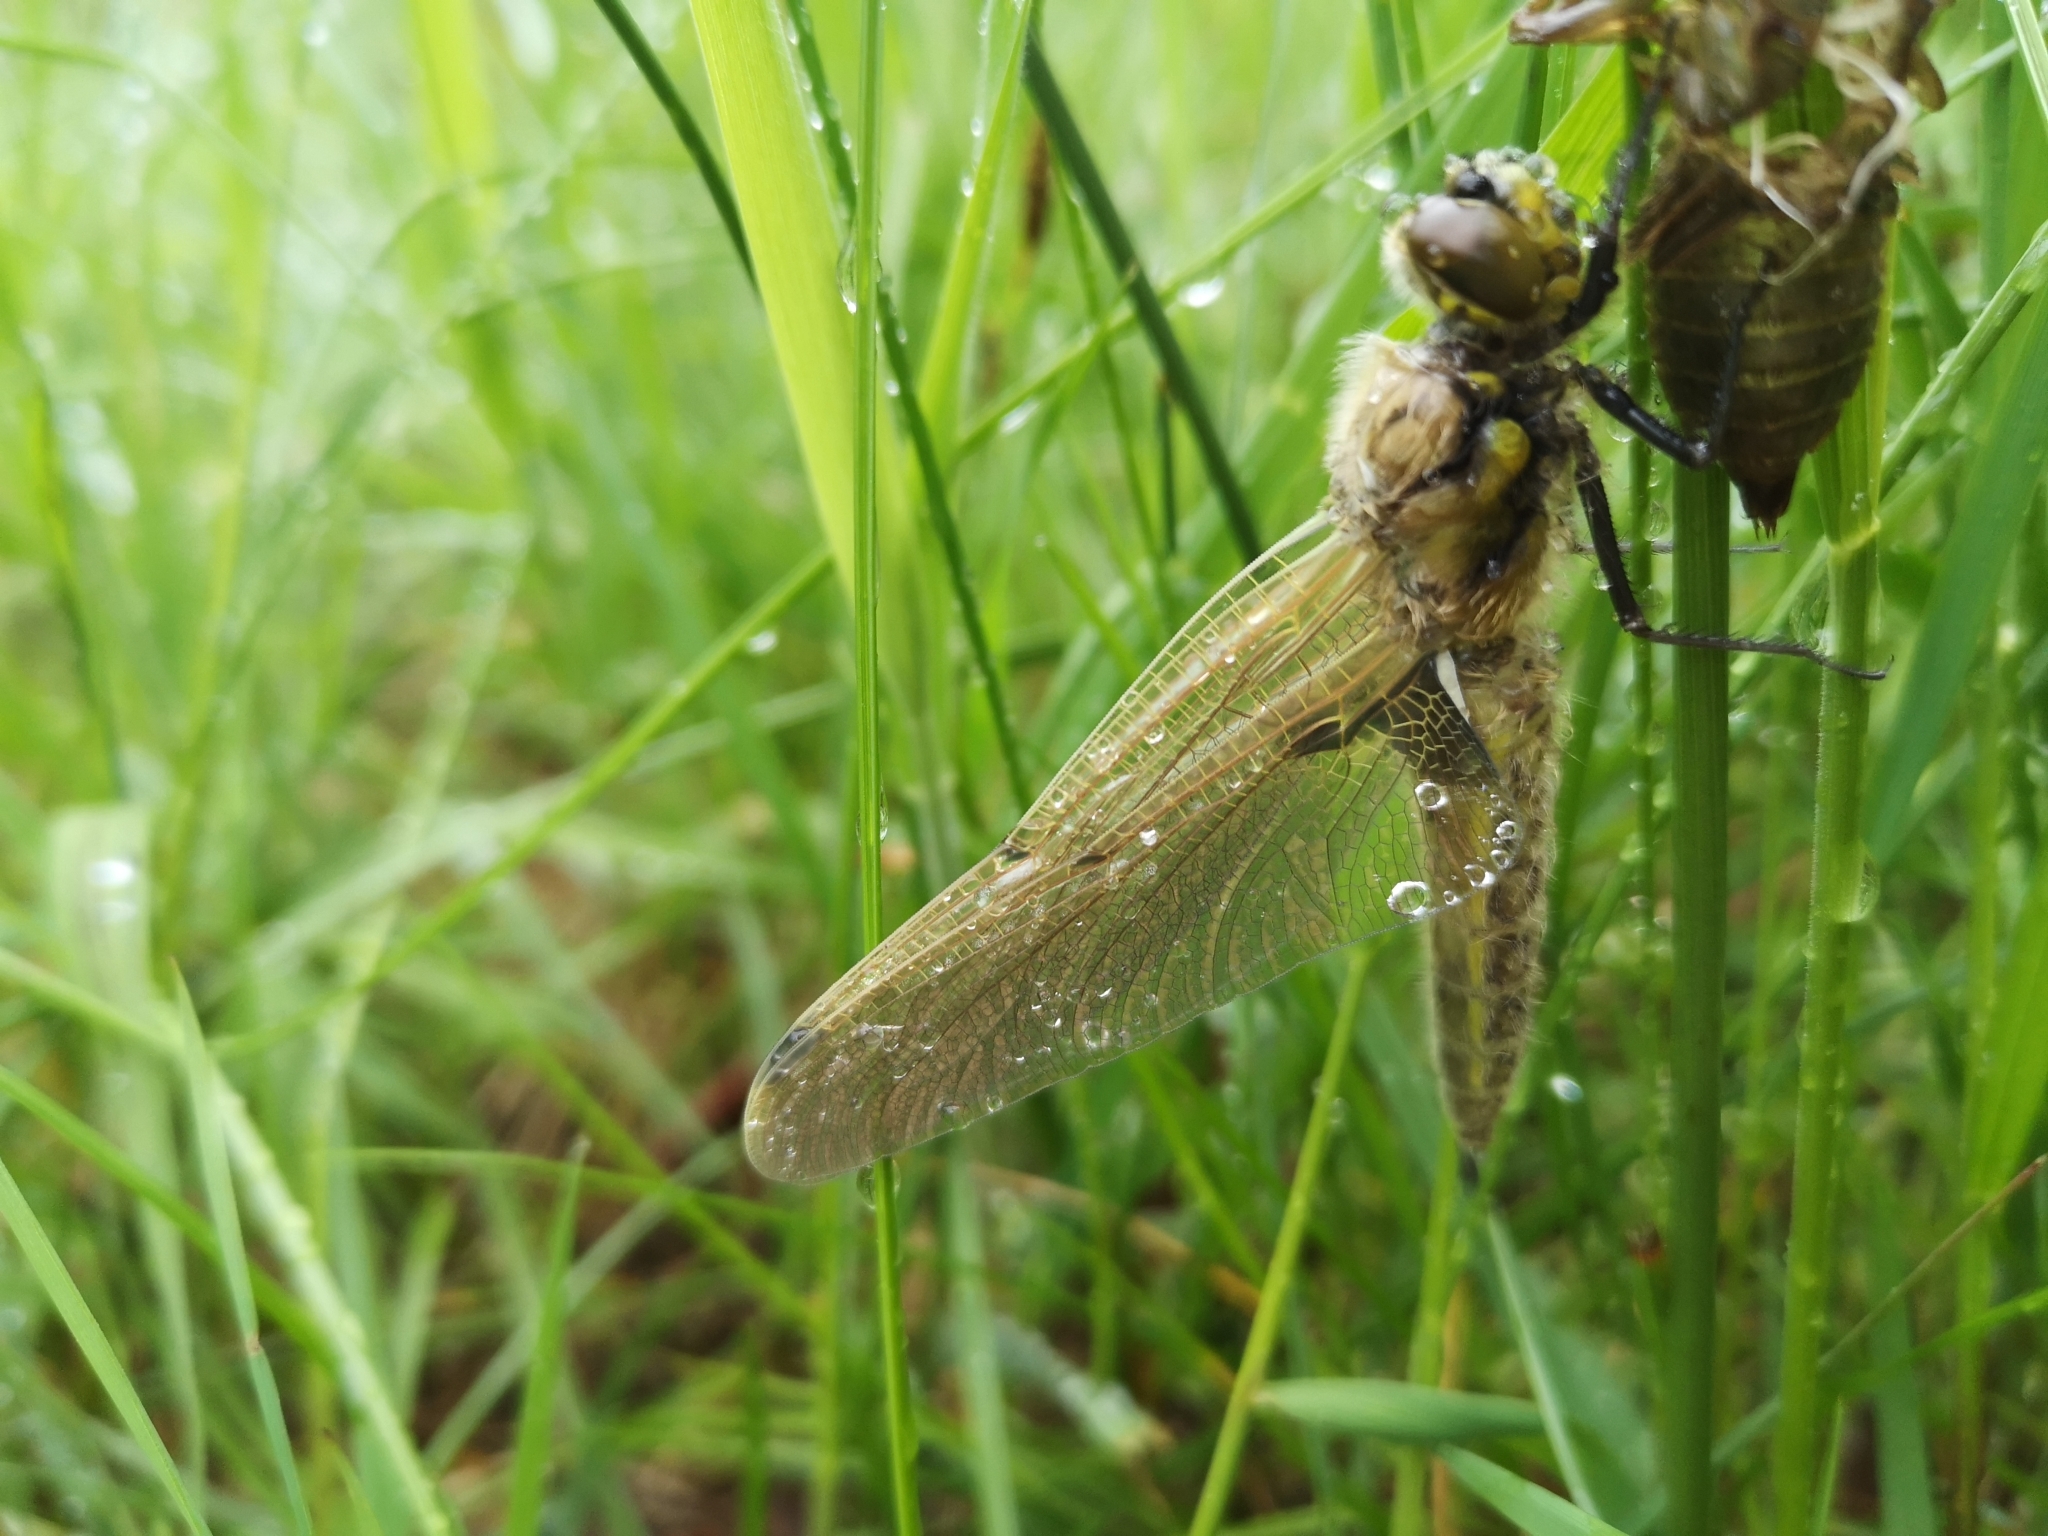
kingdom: Animalia
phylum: Arthropoda
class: Insecta
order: Odonata
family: Libellulidae
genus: Libellula
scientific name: Libellula quadrimaculata
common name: Four-spotted chaser
